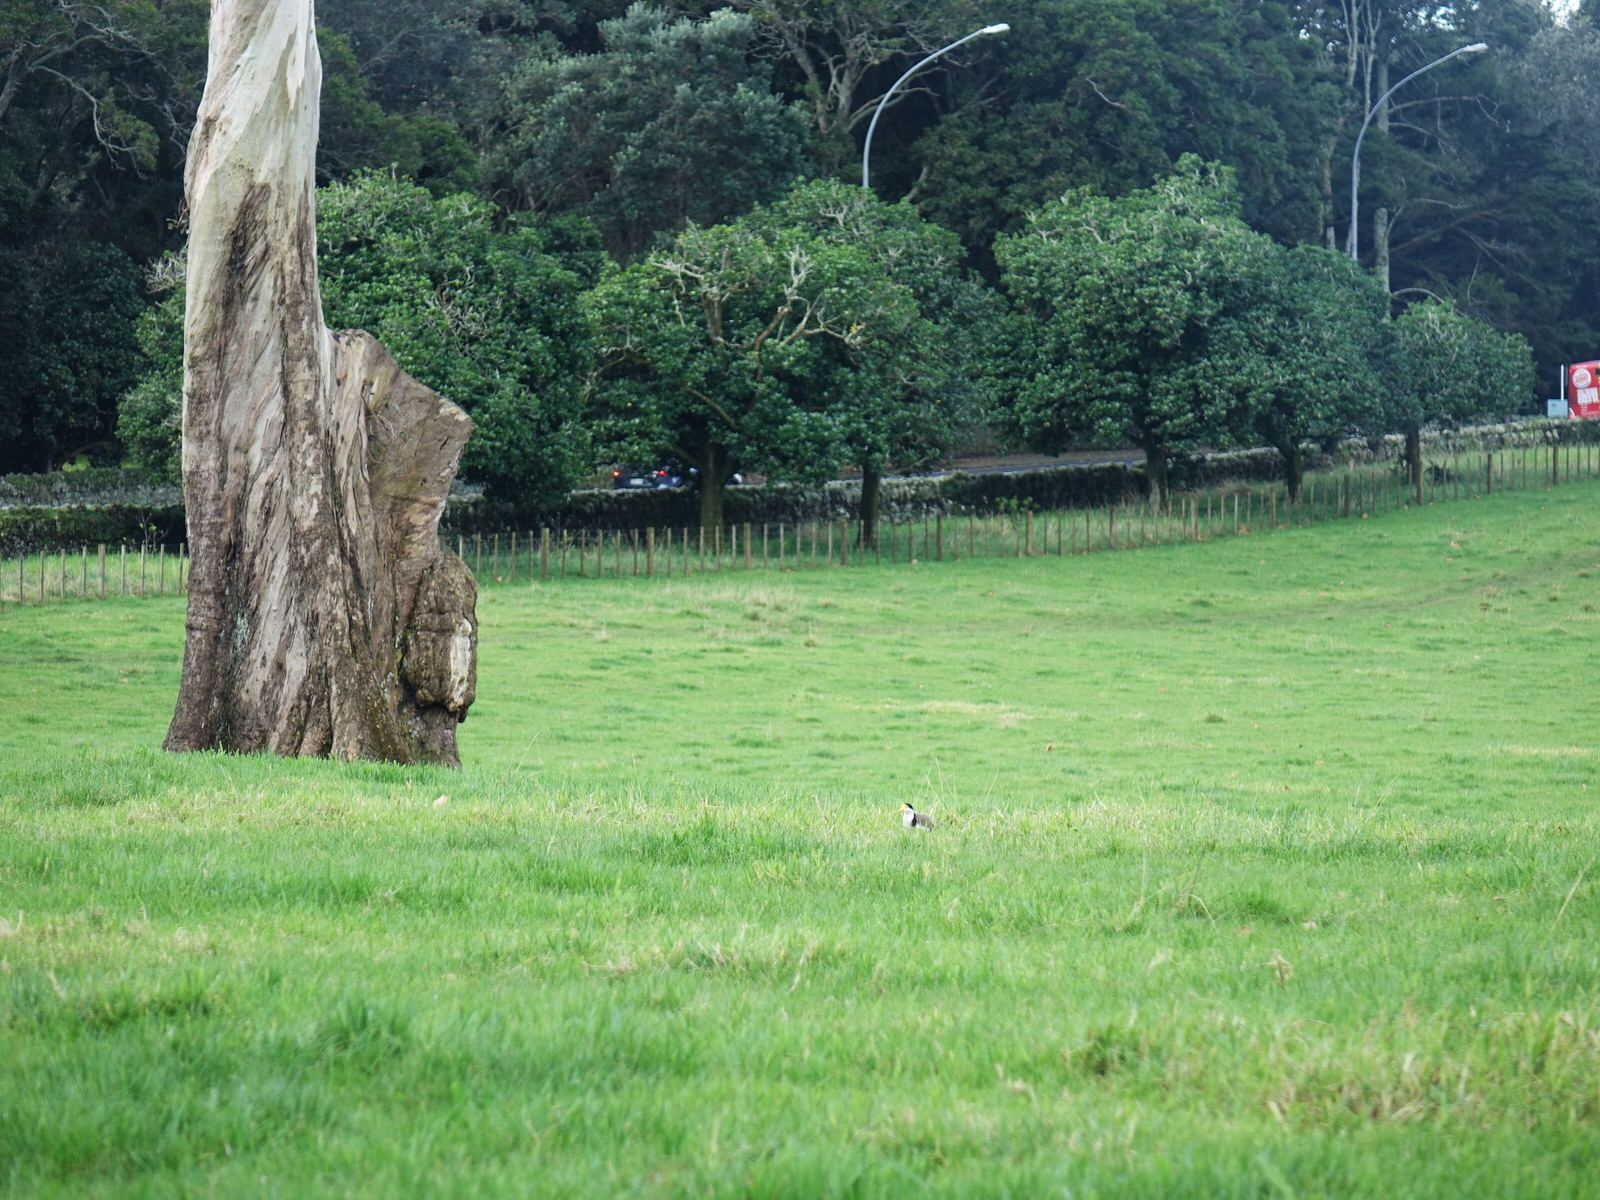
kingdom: Animalia
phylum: Chordata
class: Aves
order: Charadriiformes
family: Charadriidae
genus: Vanellus
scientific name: Vanellus miles
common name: Masked lapwing
